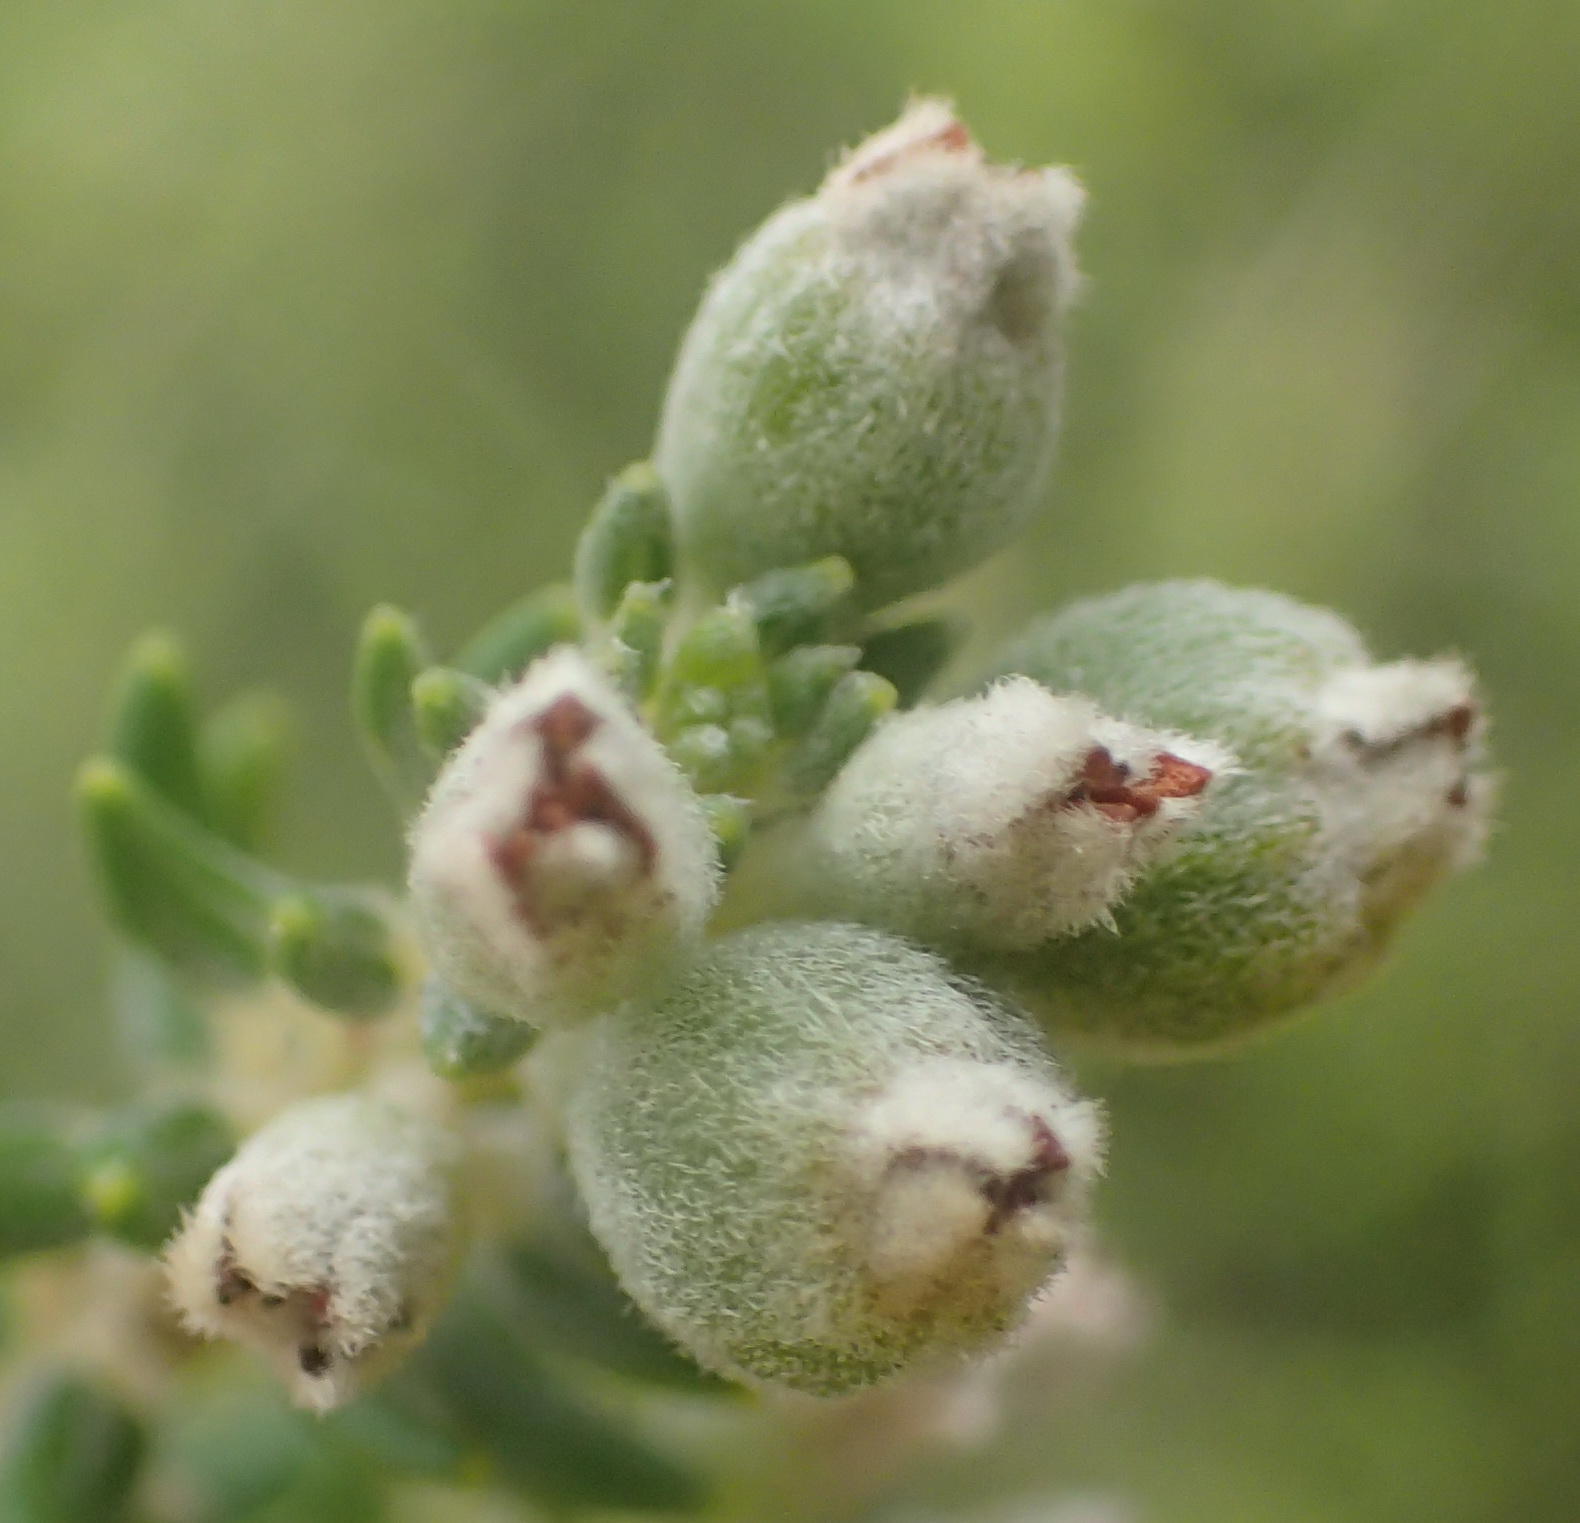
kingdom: Plantae
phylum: Tracheophyta
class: Magnoliopsida
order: Rosales
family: Rhamnaceae
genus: Phylica
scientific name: Phylica axillaris
